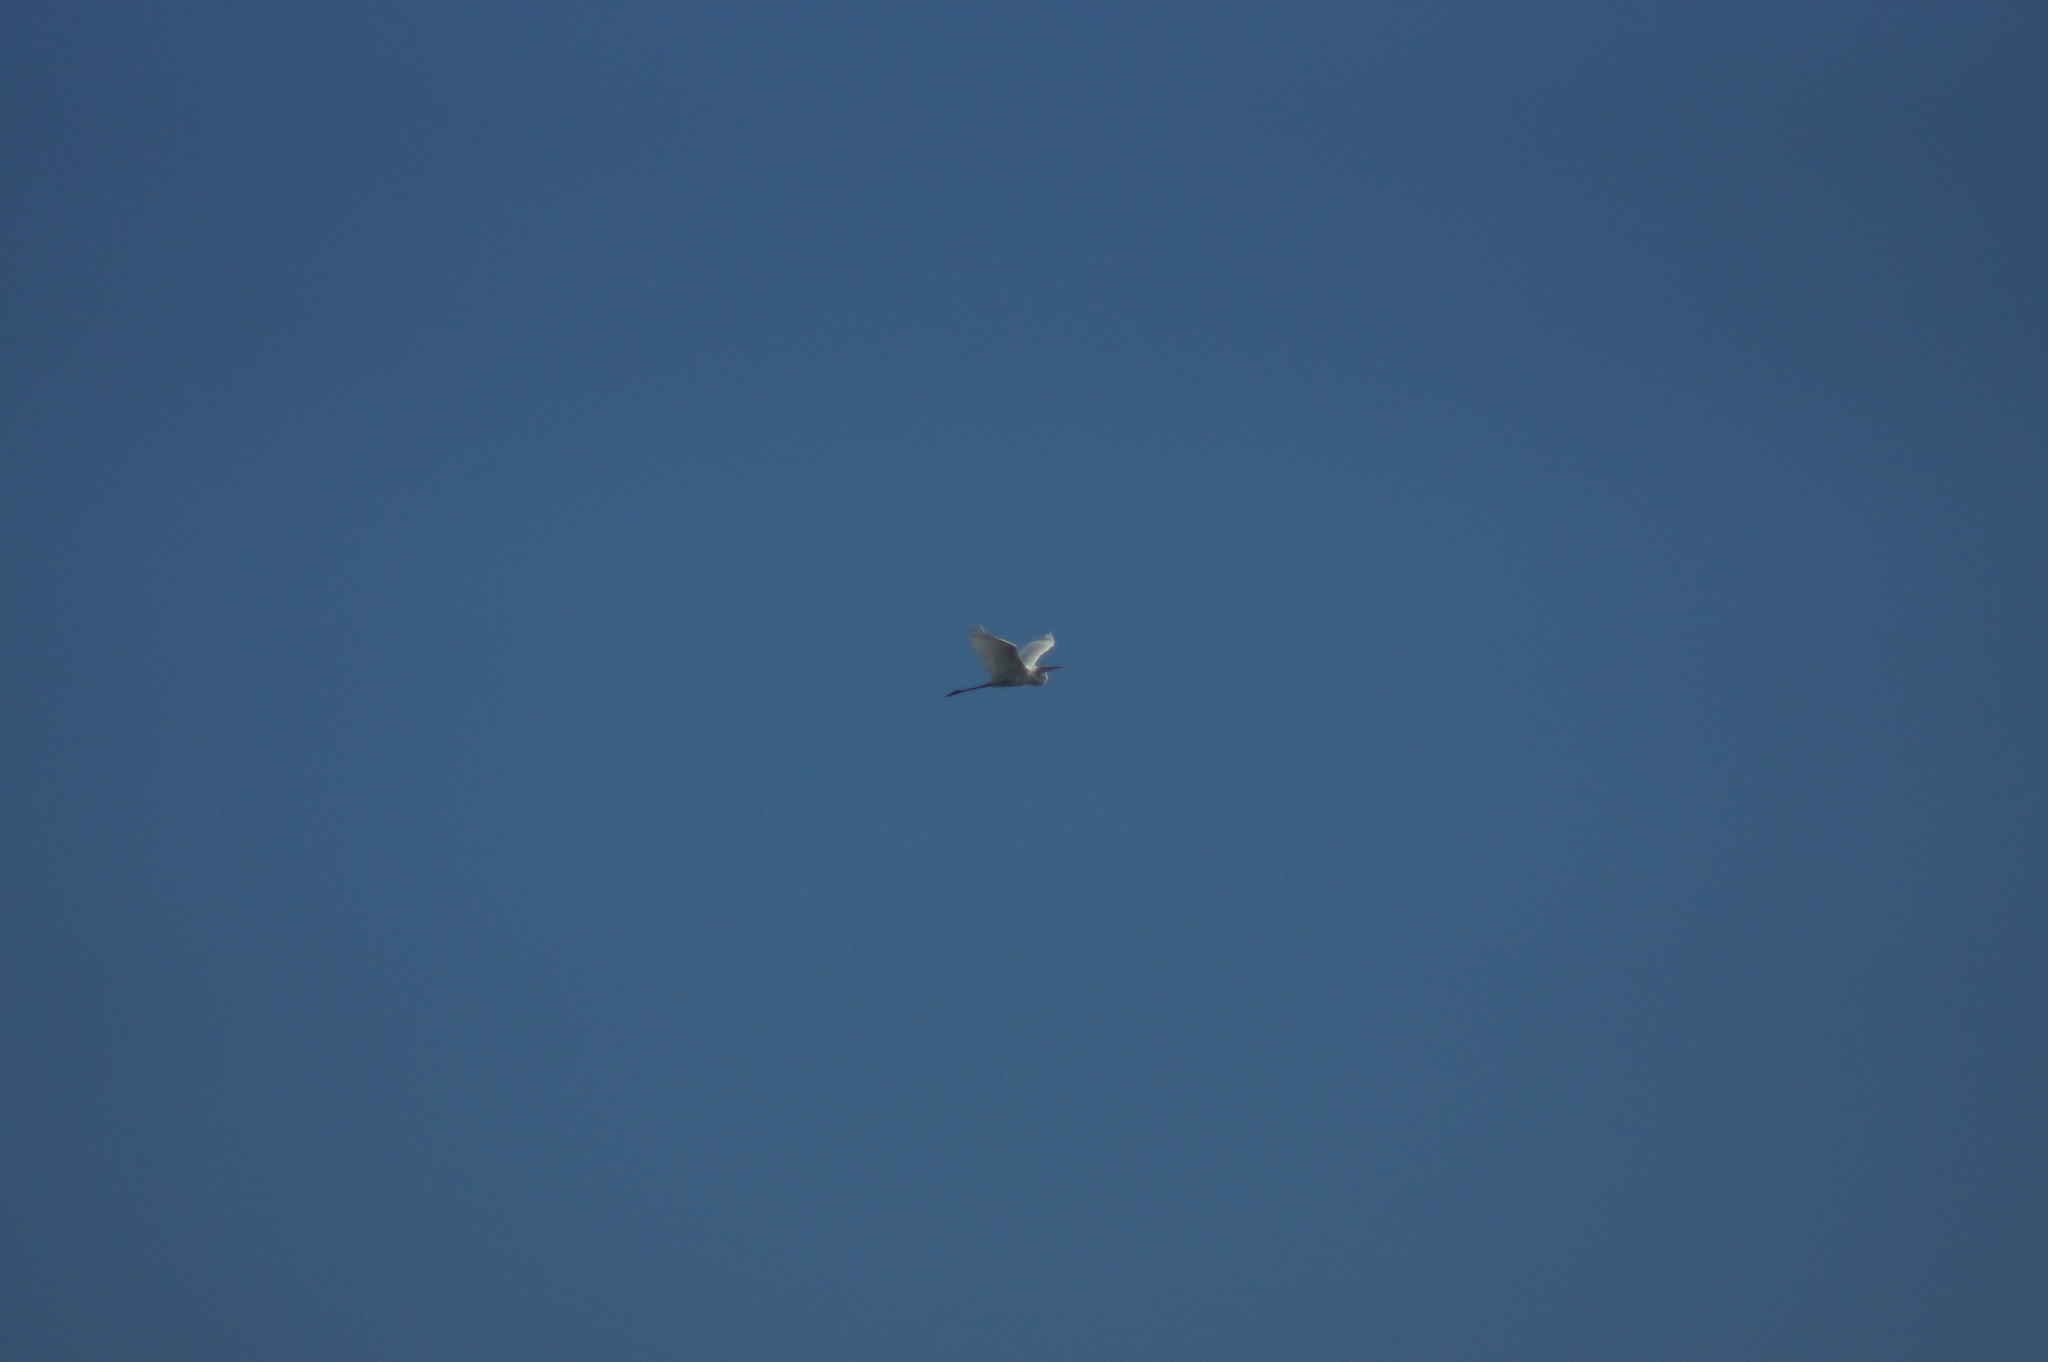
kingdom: Animalia
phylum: Chordata
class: Aves
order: Pelecaniformes
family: Ardeidae
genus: Ardea
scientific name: Ardea alba
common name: Great egret
